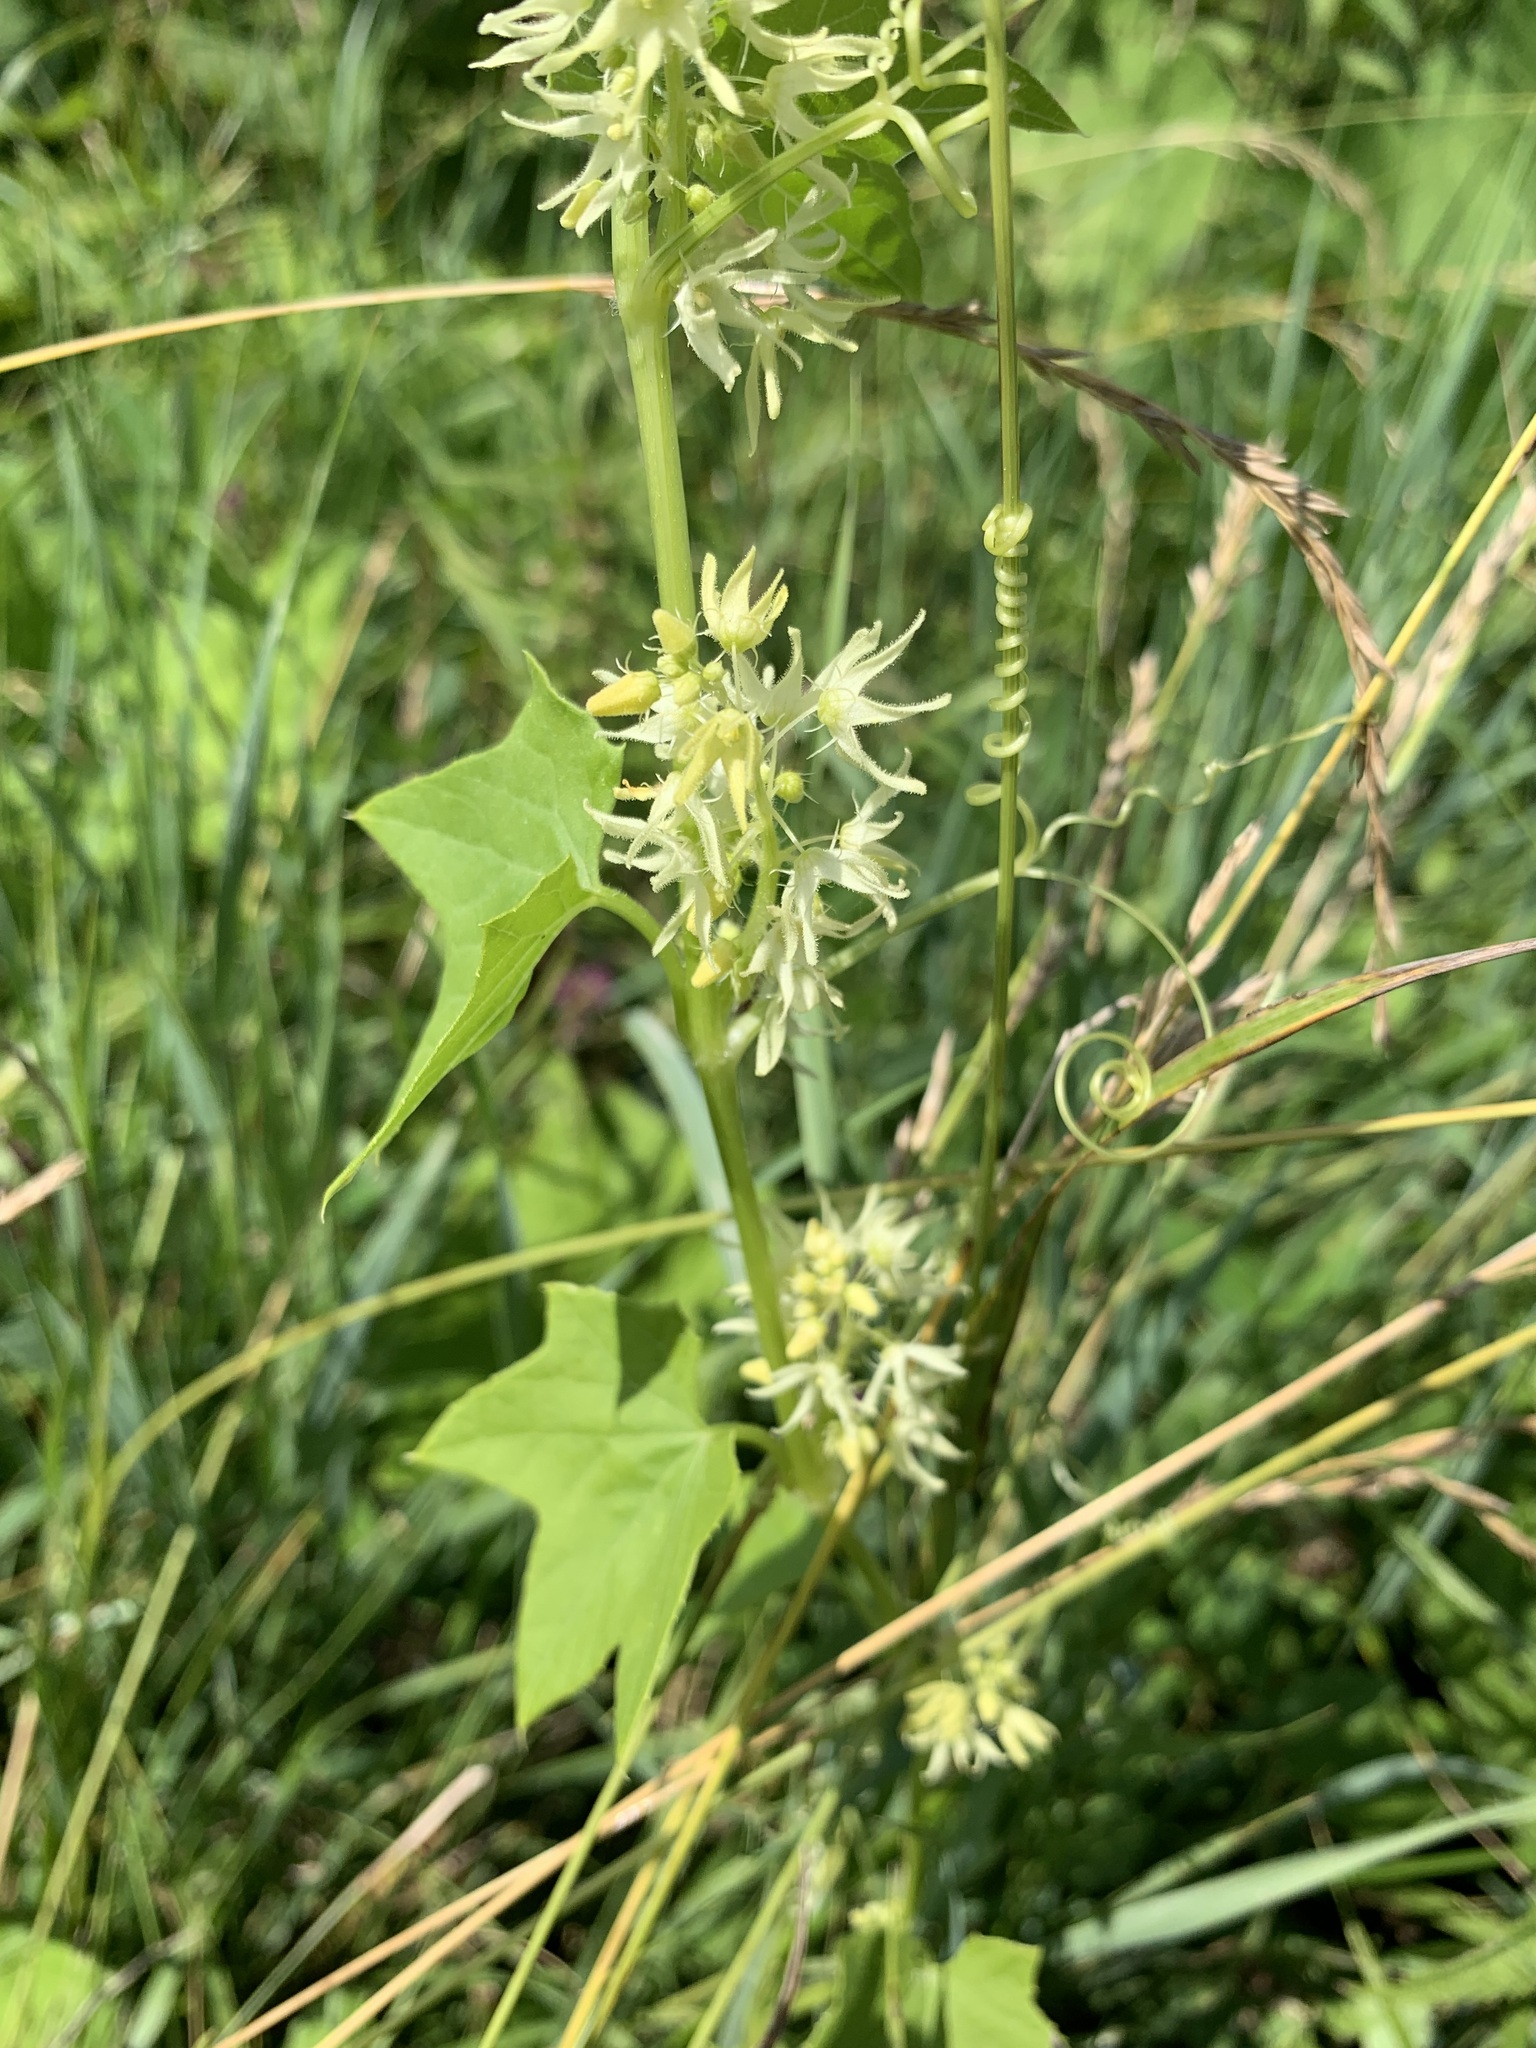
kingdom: Plantae
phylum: Tracheophyta
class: Magnoliopsida
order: Cucurbitales
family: Cucurbitaceae
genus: Echinocystis
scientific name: Echinocystis lobata
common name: Wild cucumber
